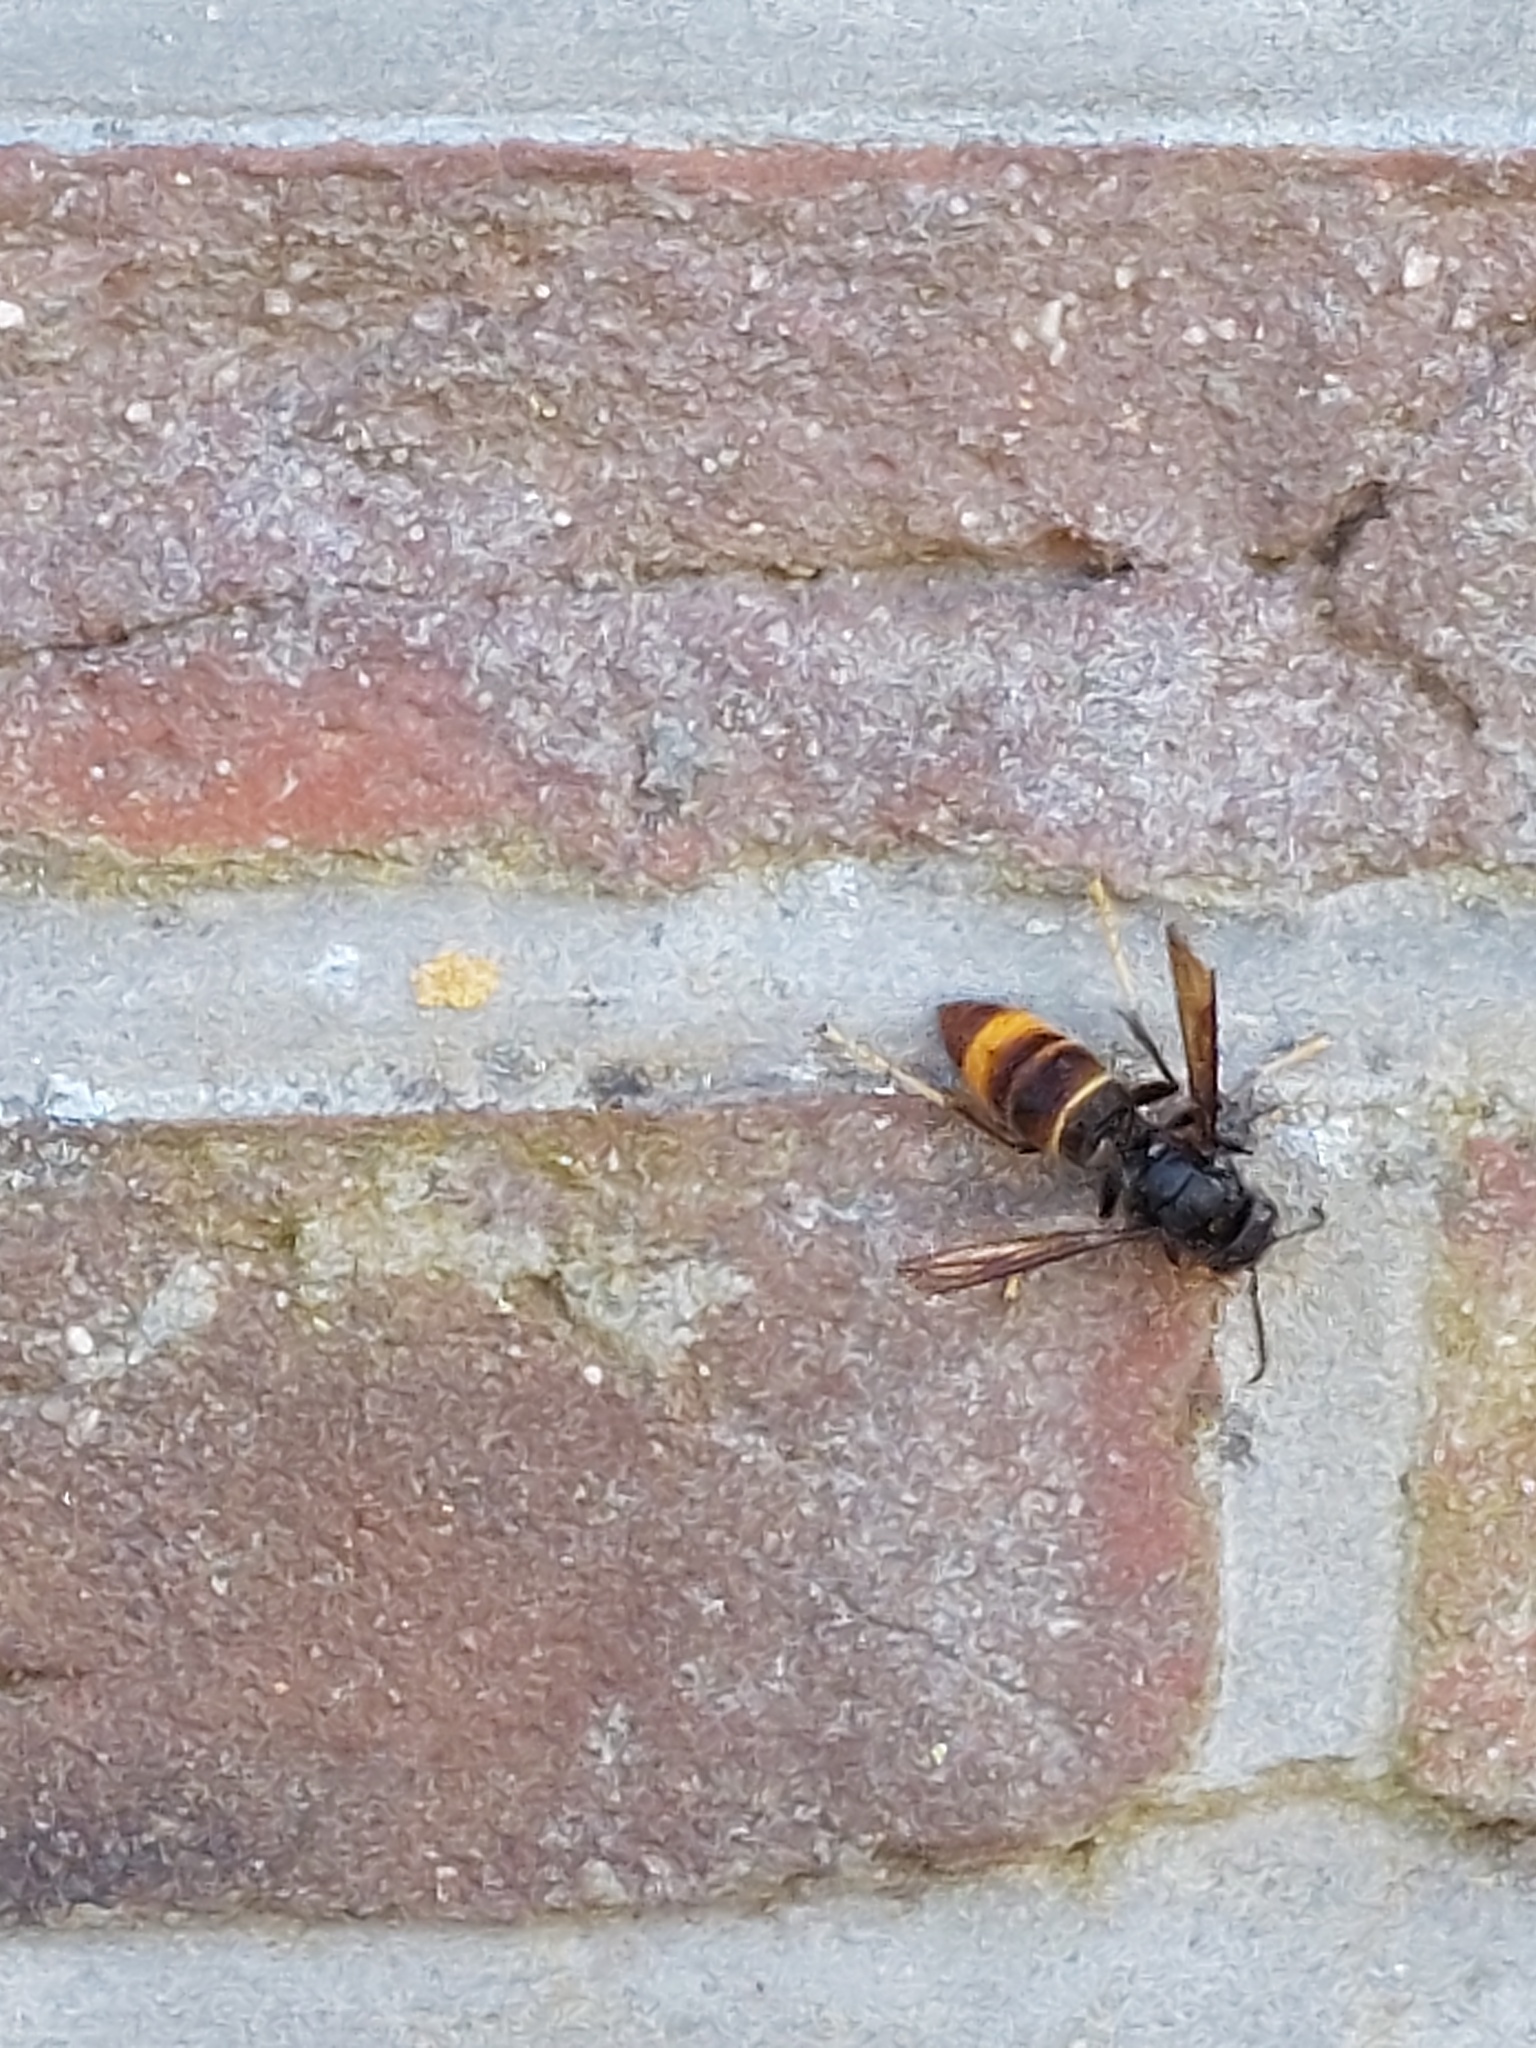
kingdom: Animalia
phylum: Arthropoda
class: Insecta
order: Hymenoptera
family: Vespidae
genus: Vespa
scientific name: Vespa velutina
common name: Asian hornet
